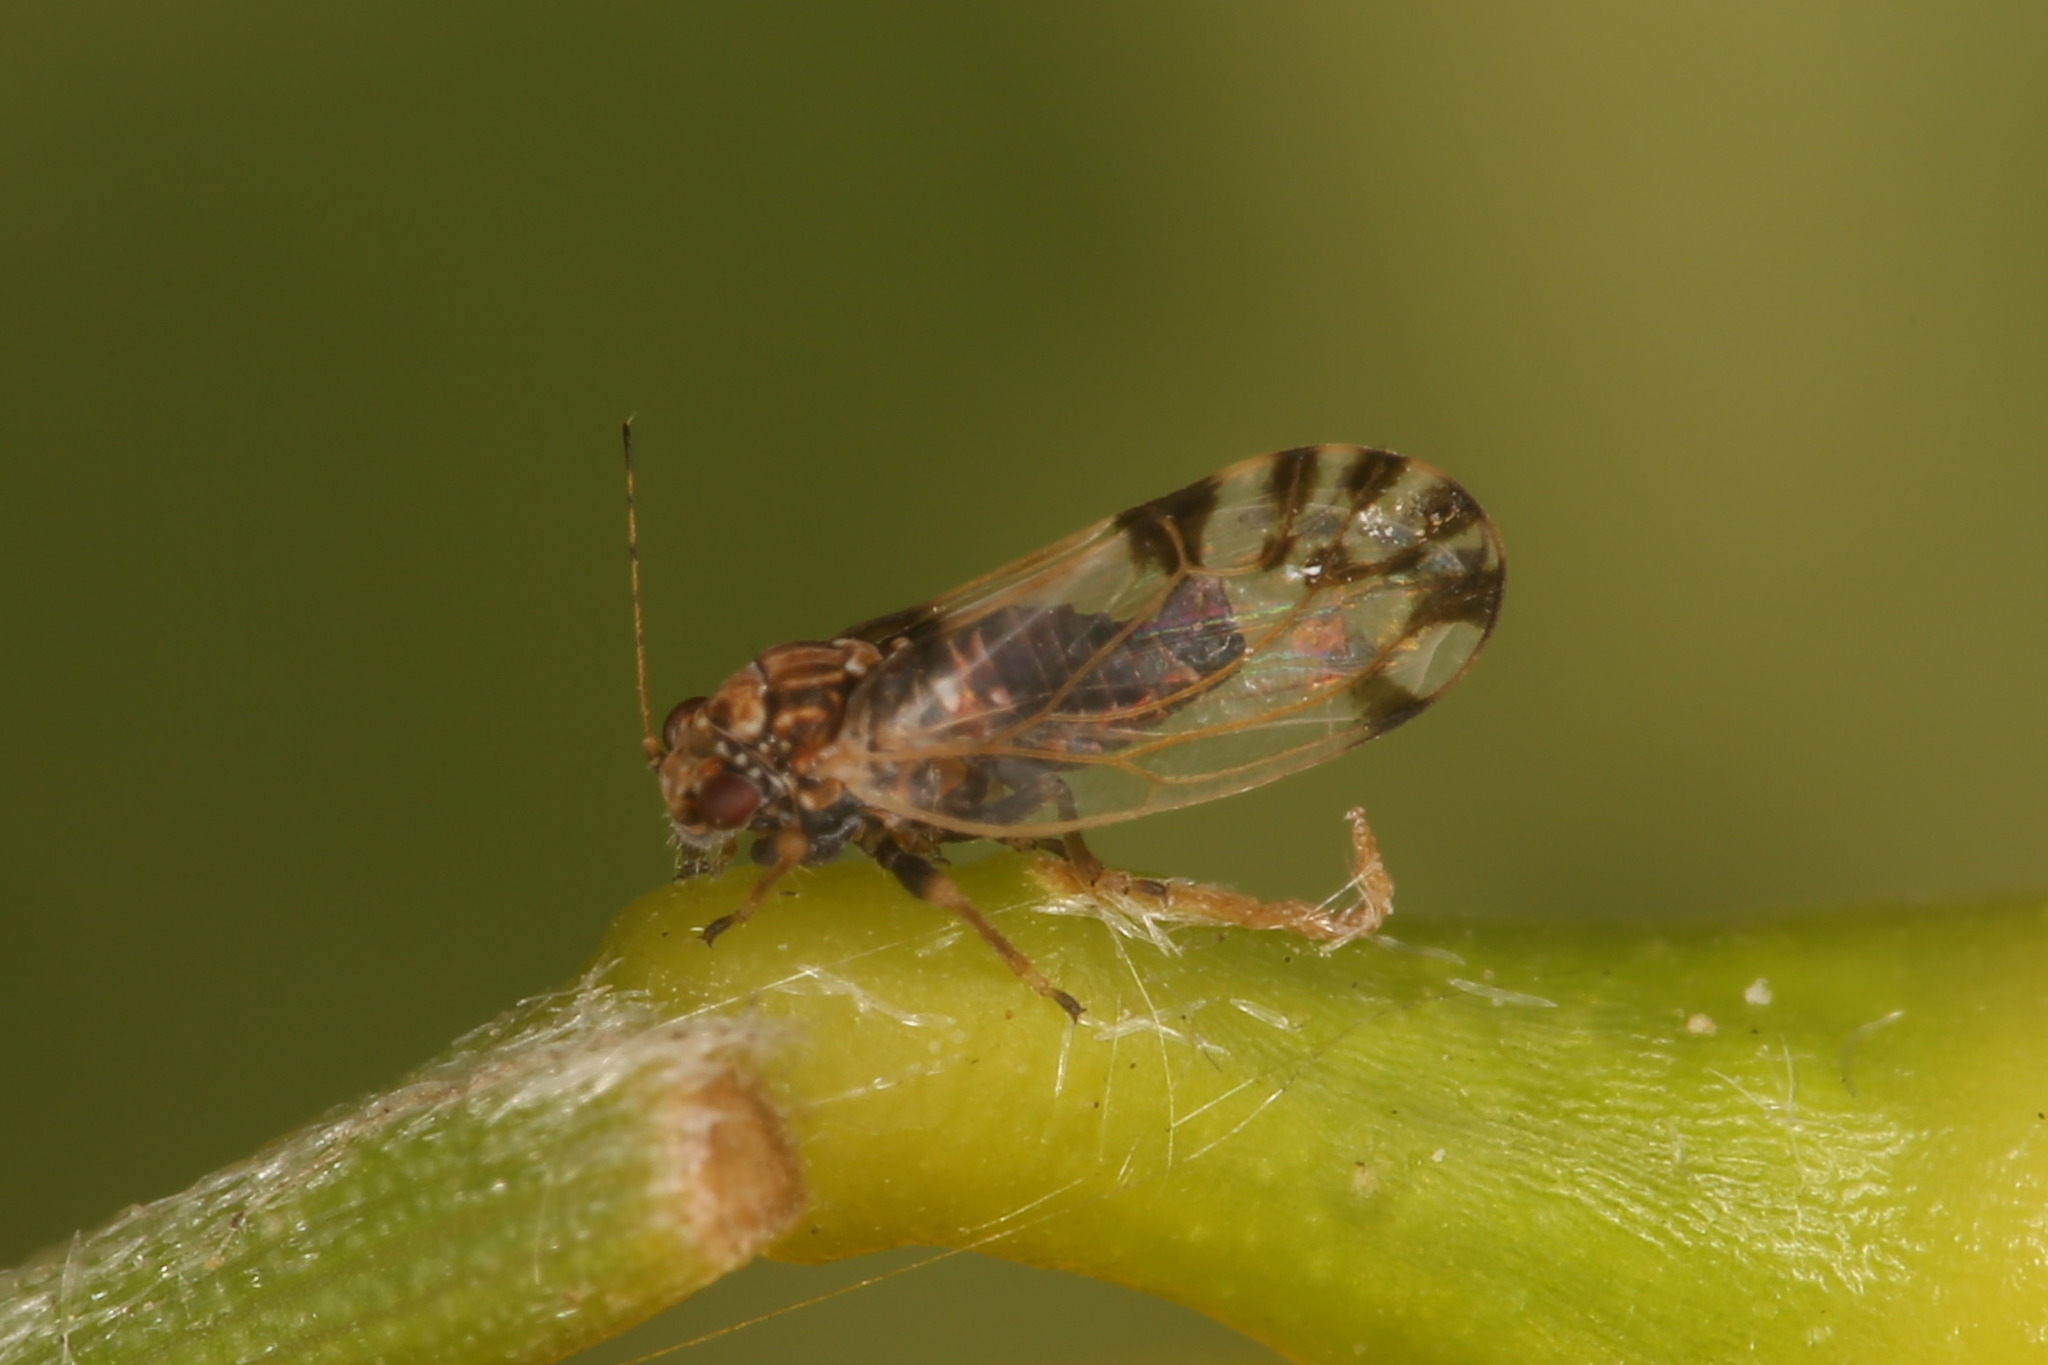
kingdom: Animalia
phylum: Arthropoda
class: Insecta
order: Hemiptera
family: Psyllidae
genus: Cacopsylla
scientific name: Cacopsylla pulchella
